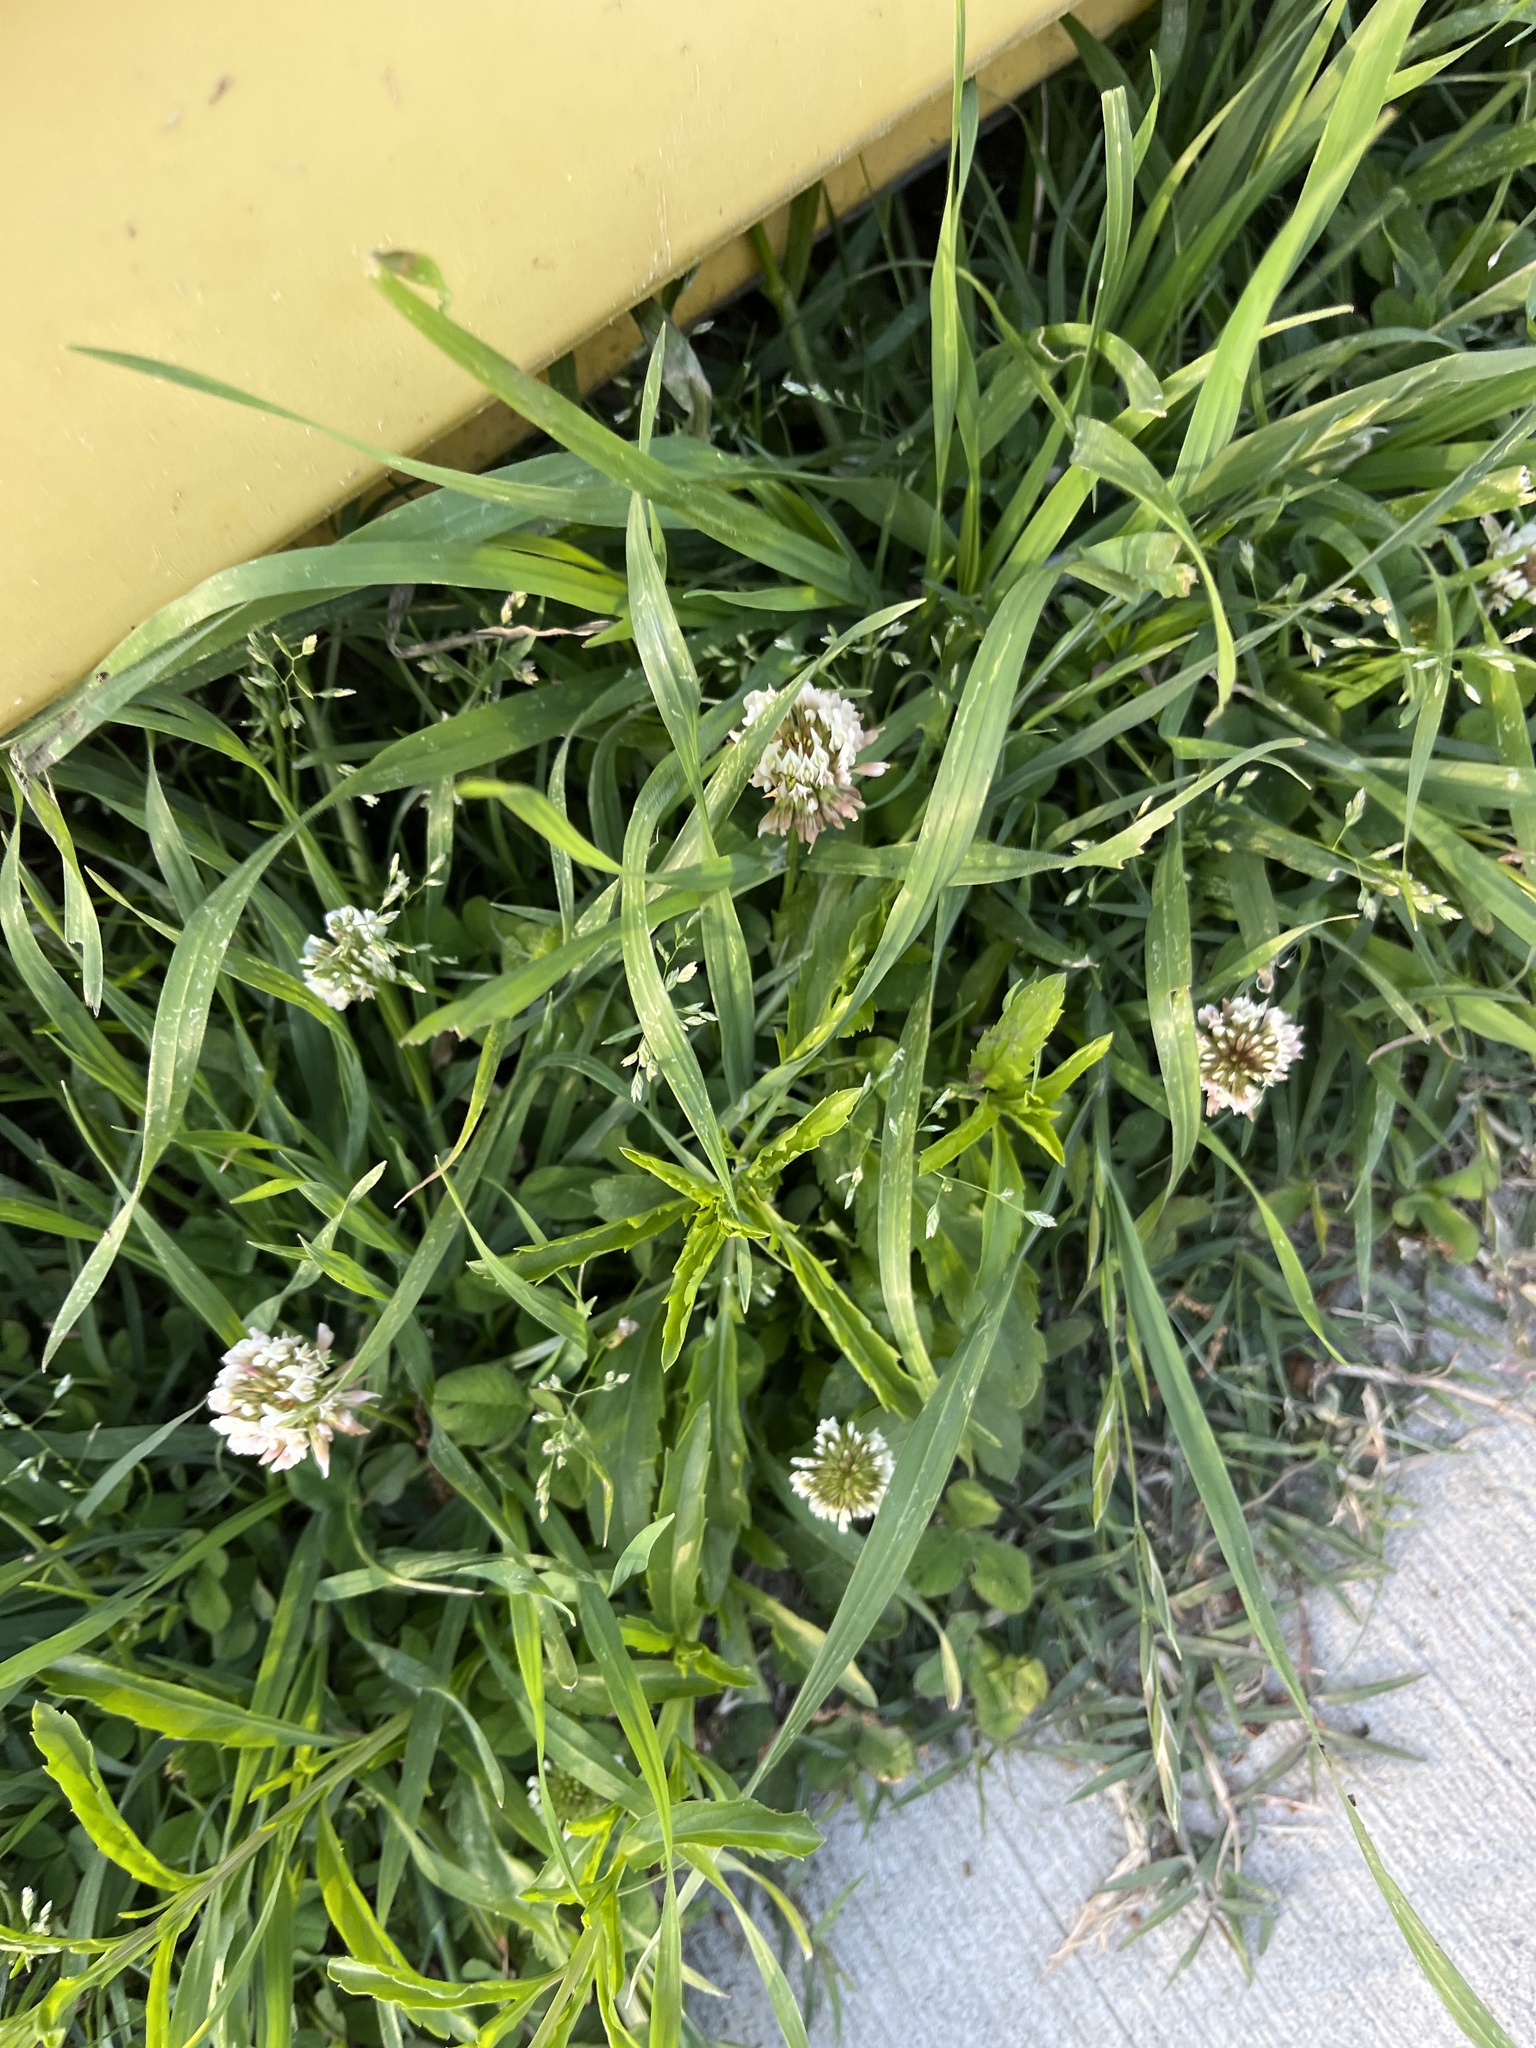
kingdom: Plantae
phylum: Tracheophyta
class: Magnoliopsida
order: Fabales
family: Fabaceae
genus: Trifolium
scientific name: Trifolium repens
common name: White clover
